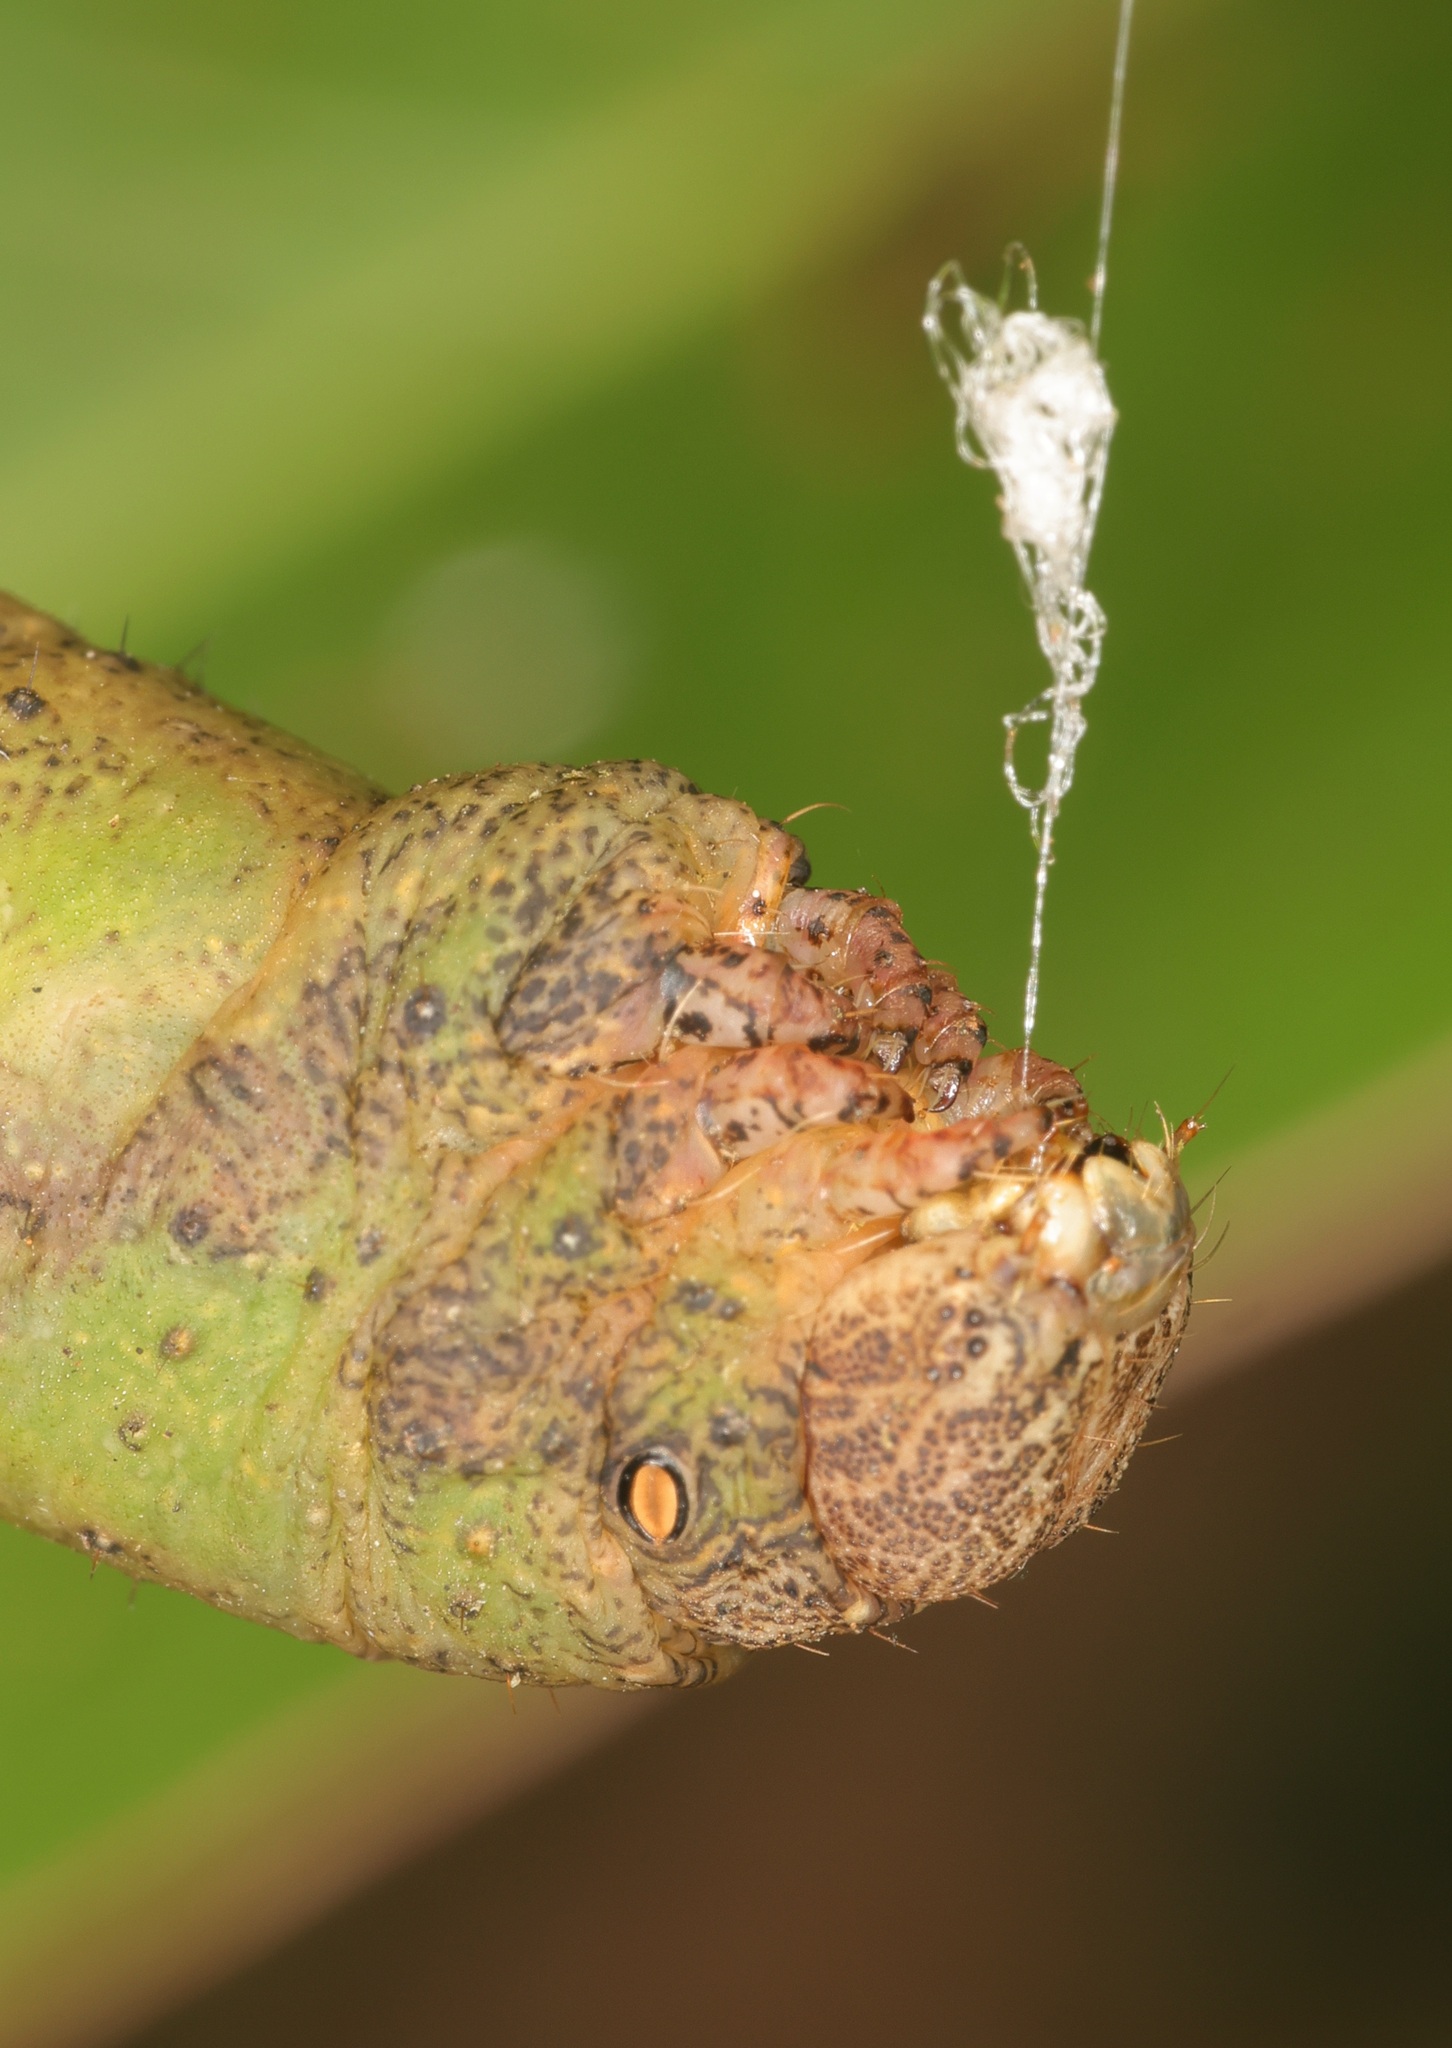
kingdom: Animalia
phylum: Arthropoda
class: Insecta
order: Lepidoptera
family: Geometridae
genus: Amblychia
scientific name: Amblychia angeronaria
